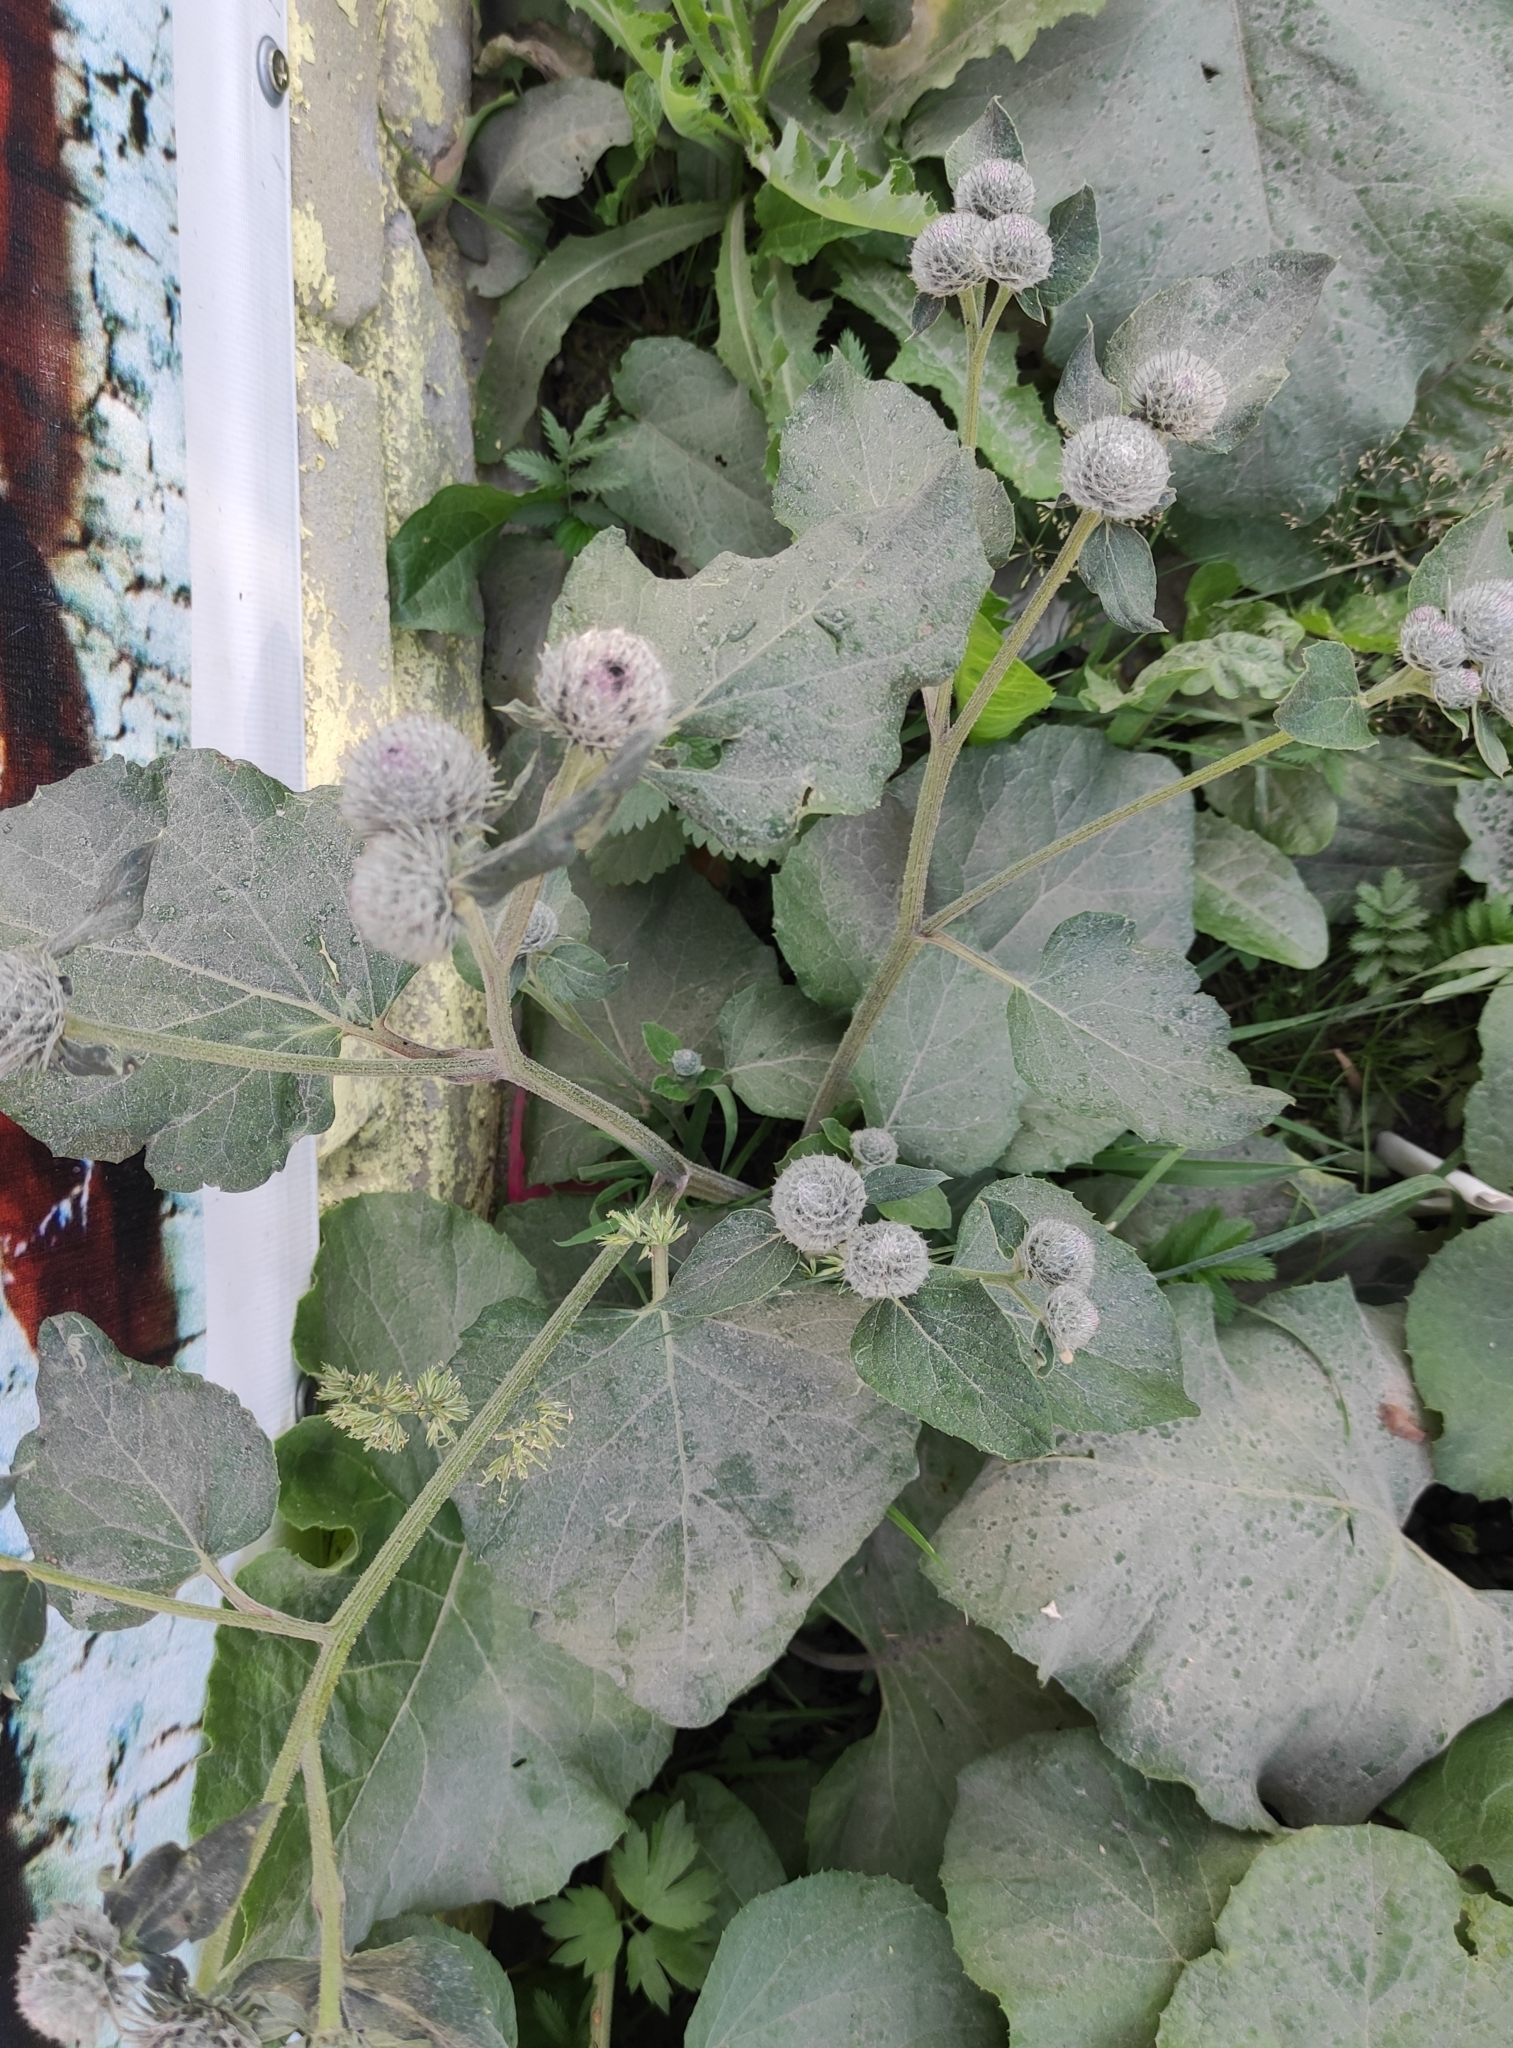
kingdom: Plantae
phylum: Tracheophyta
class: Magnoliopsida
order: Asterales
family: Asteraceae
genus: Arctium
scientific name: Arctium tomentosum
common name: Woolly burdock
